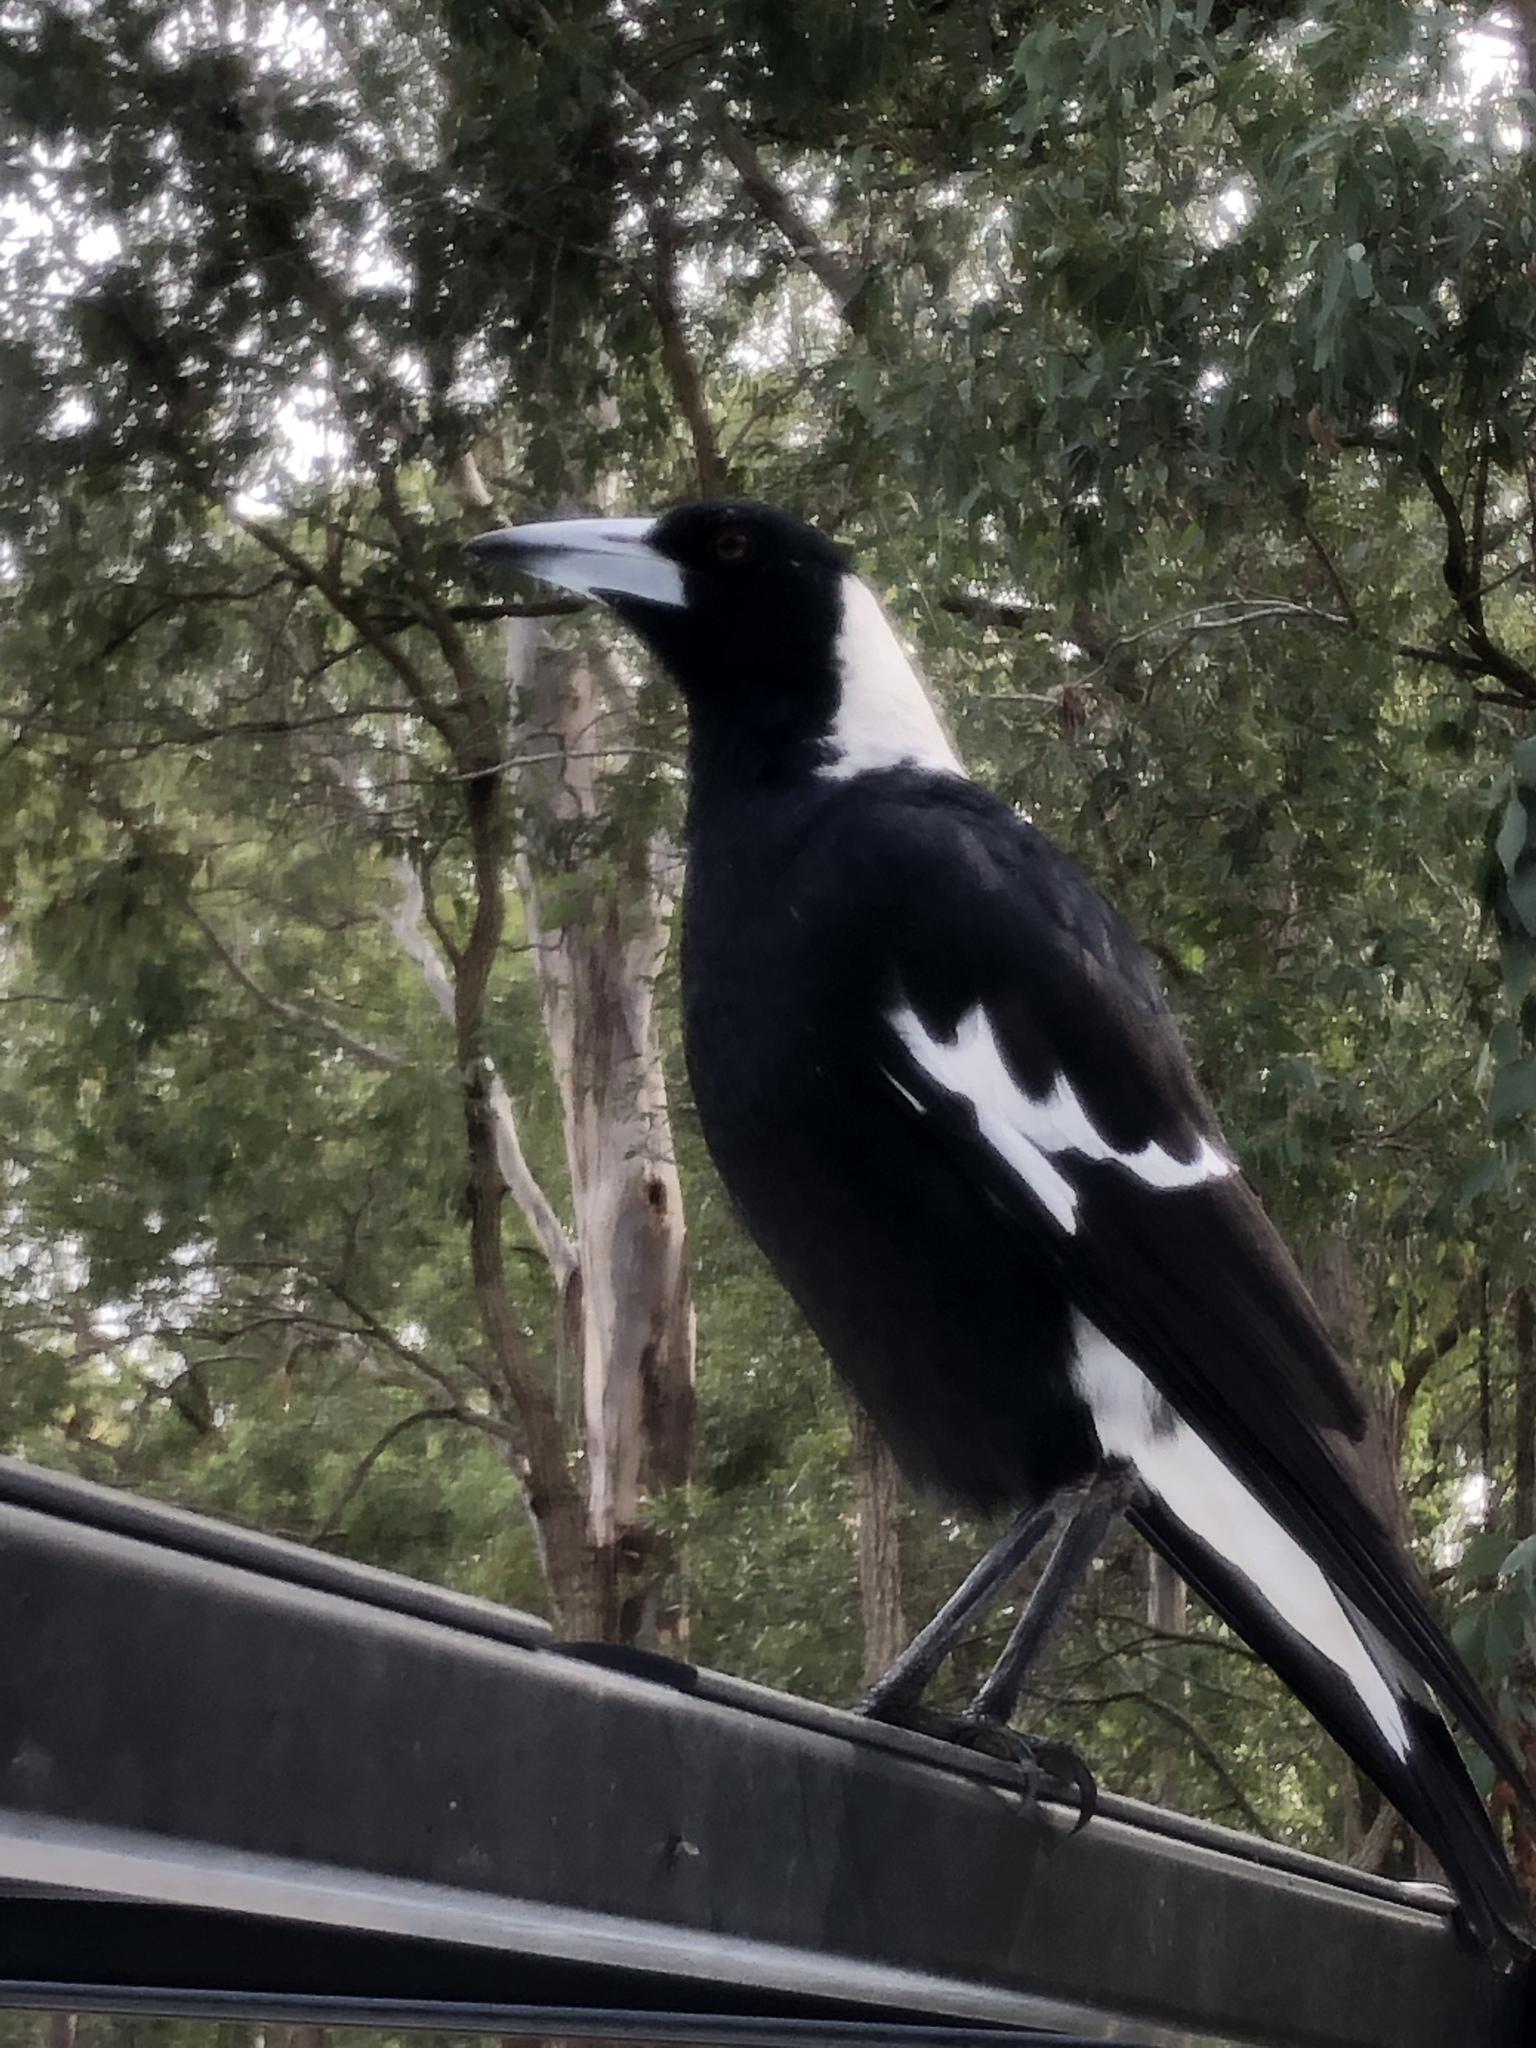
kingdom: Animalia
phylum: Chordata
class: Aves
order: Passeriformes
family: Cracticidae
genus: Gymnorhina
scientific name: Gymnorhina tibicen
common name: Australian magpie
